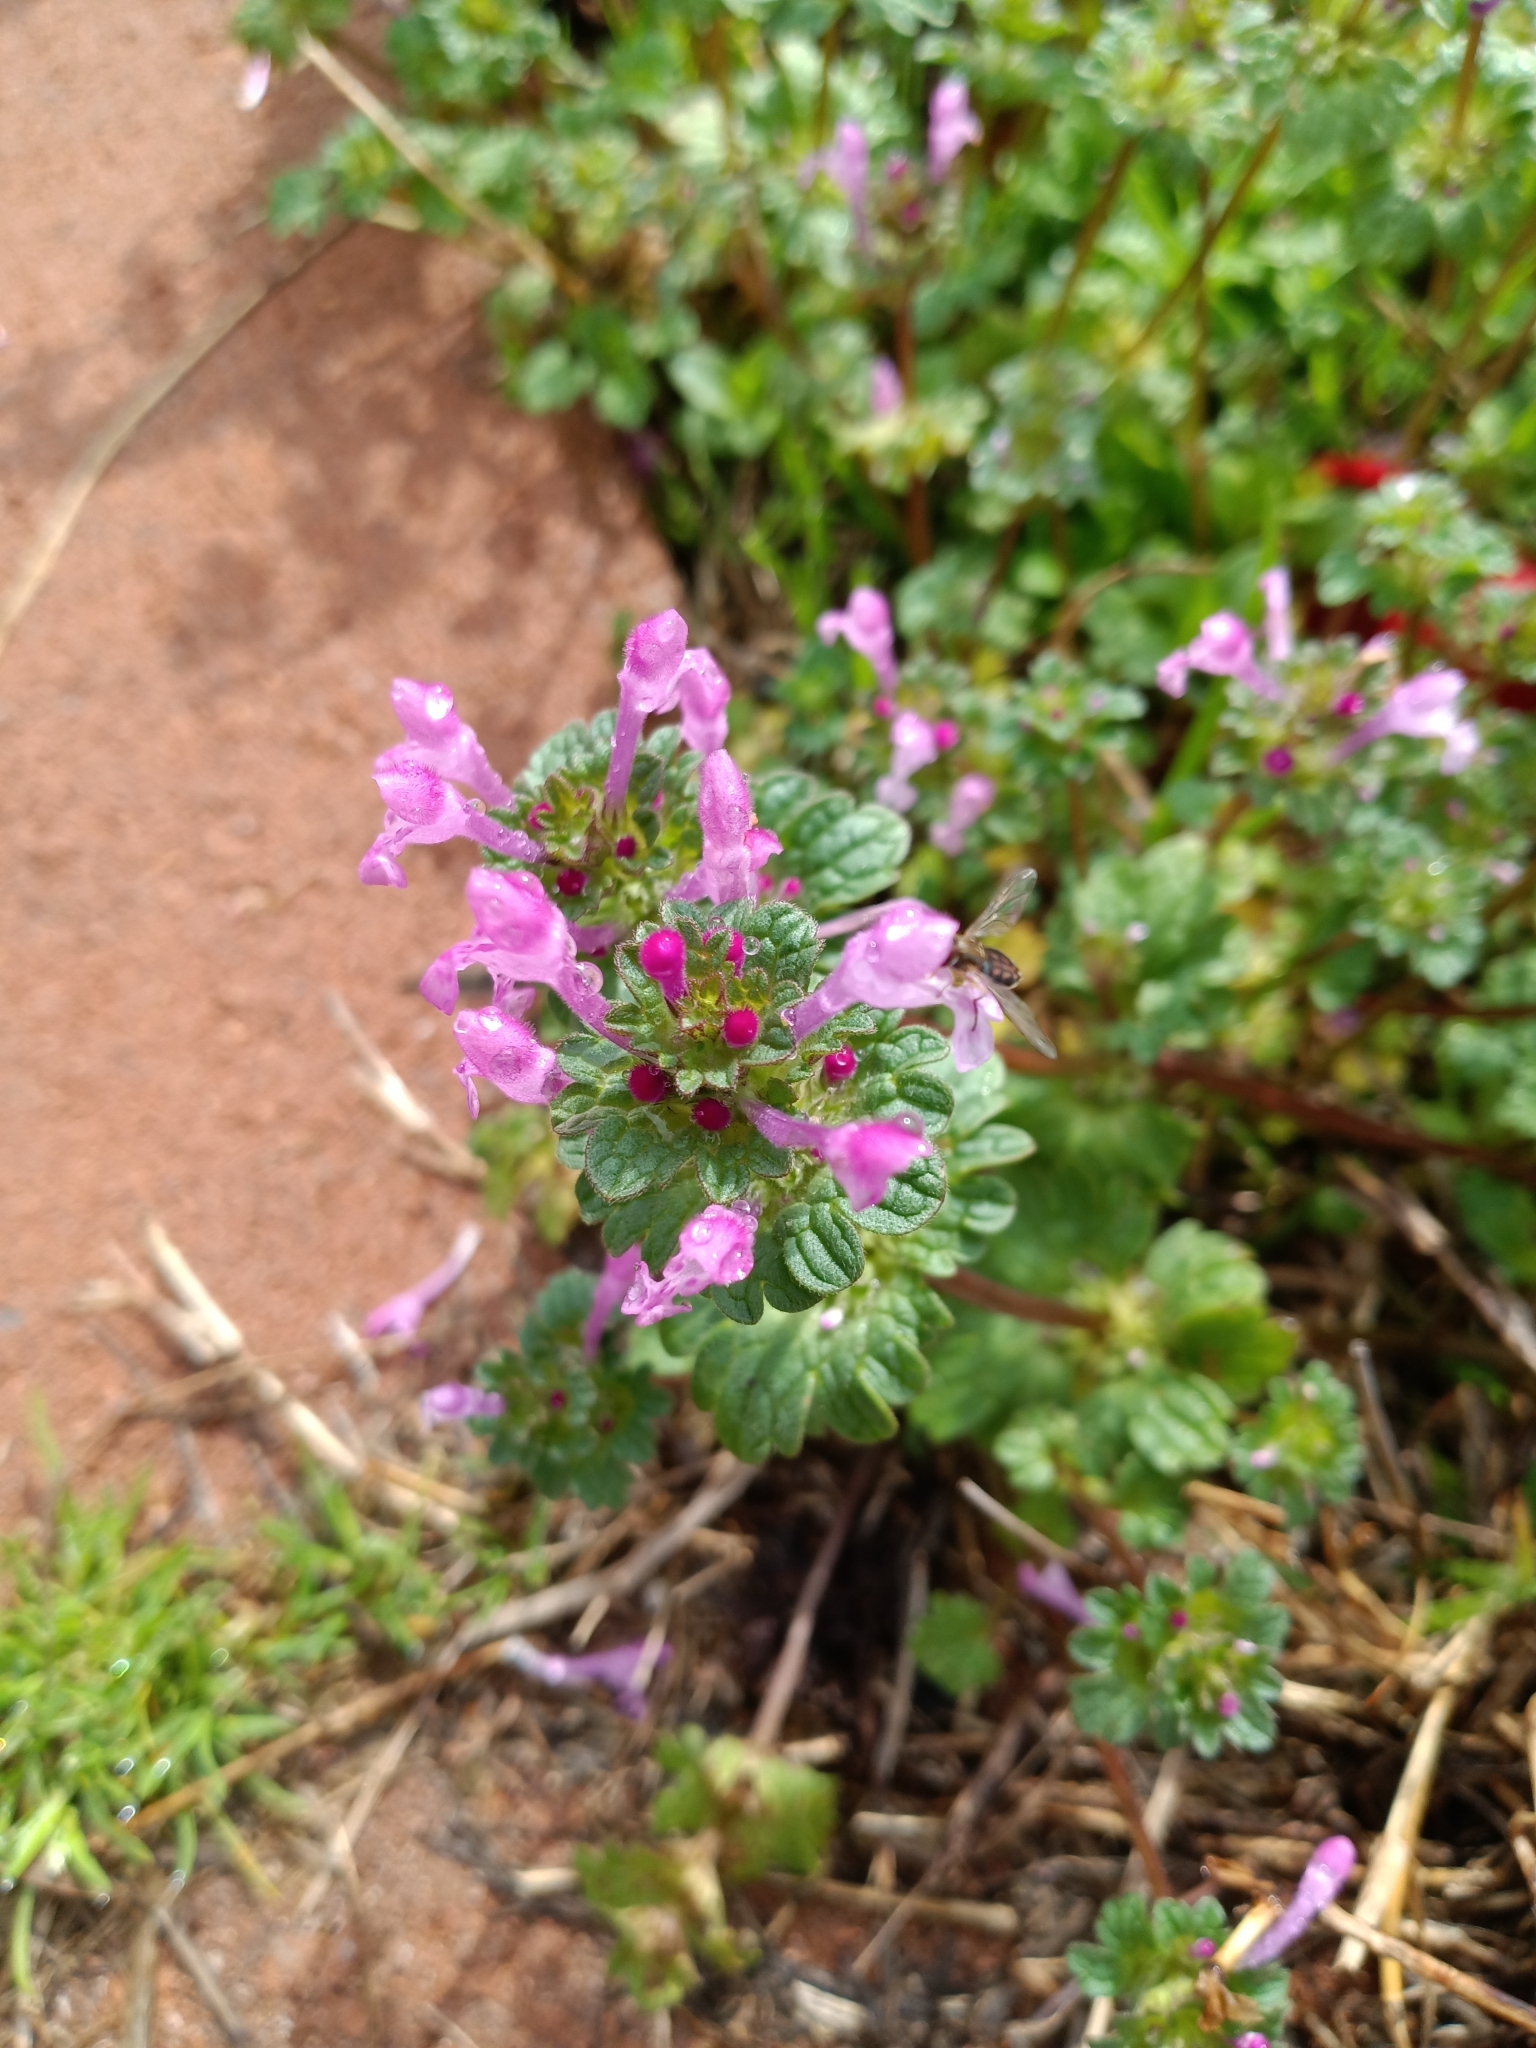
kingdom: Plantae
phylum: Tracheophyta
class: Magnoliopsida
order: Lamiales
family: Lamiaceae
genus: Lamium
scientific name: Lamium amplexicaule
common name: Henbit dead-nettle
